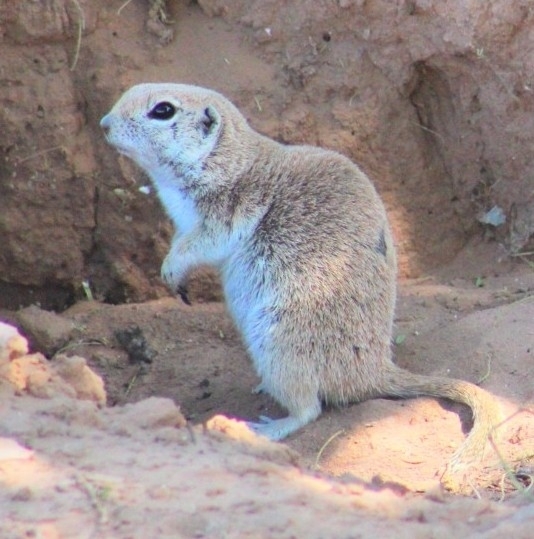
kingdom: Animalia
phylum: Chordata
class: Mammalia
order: Rodentia
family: Sciuridae
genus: Xerospermophilus
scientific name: Xerospermophilus tereticaudus
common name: Round-tailed ground squirrel
